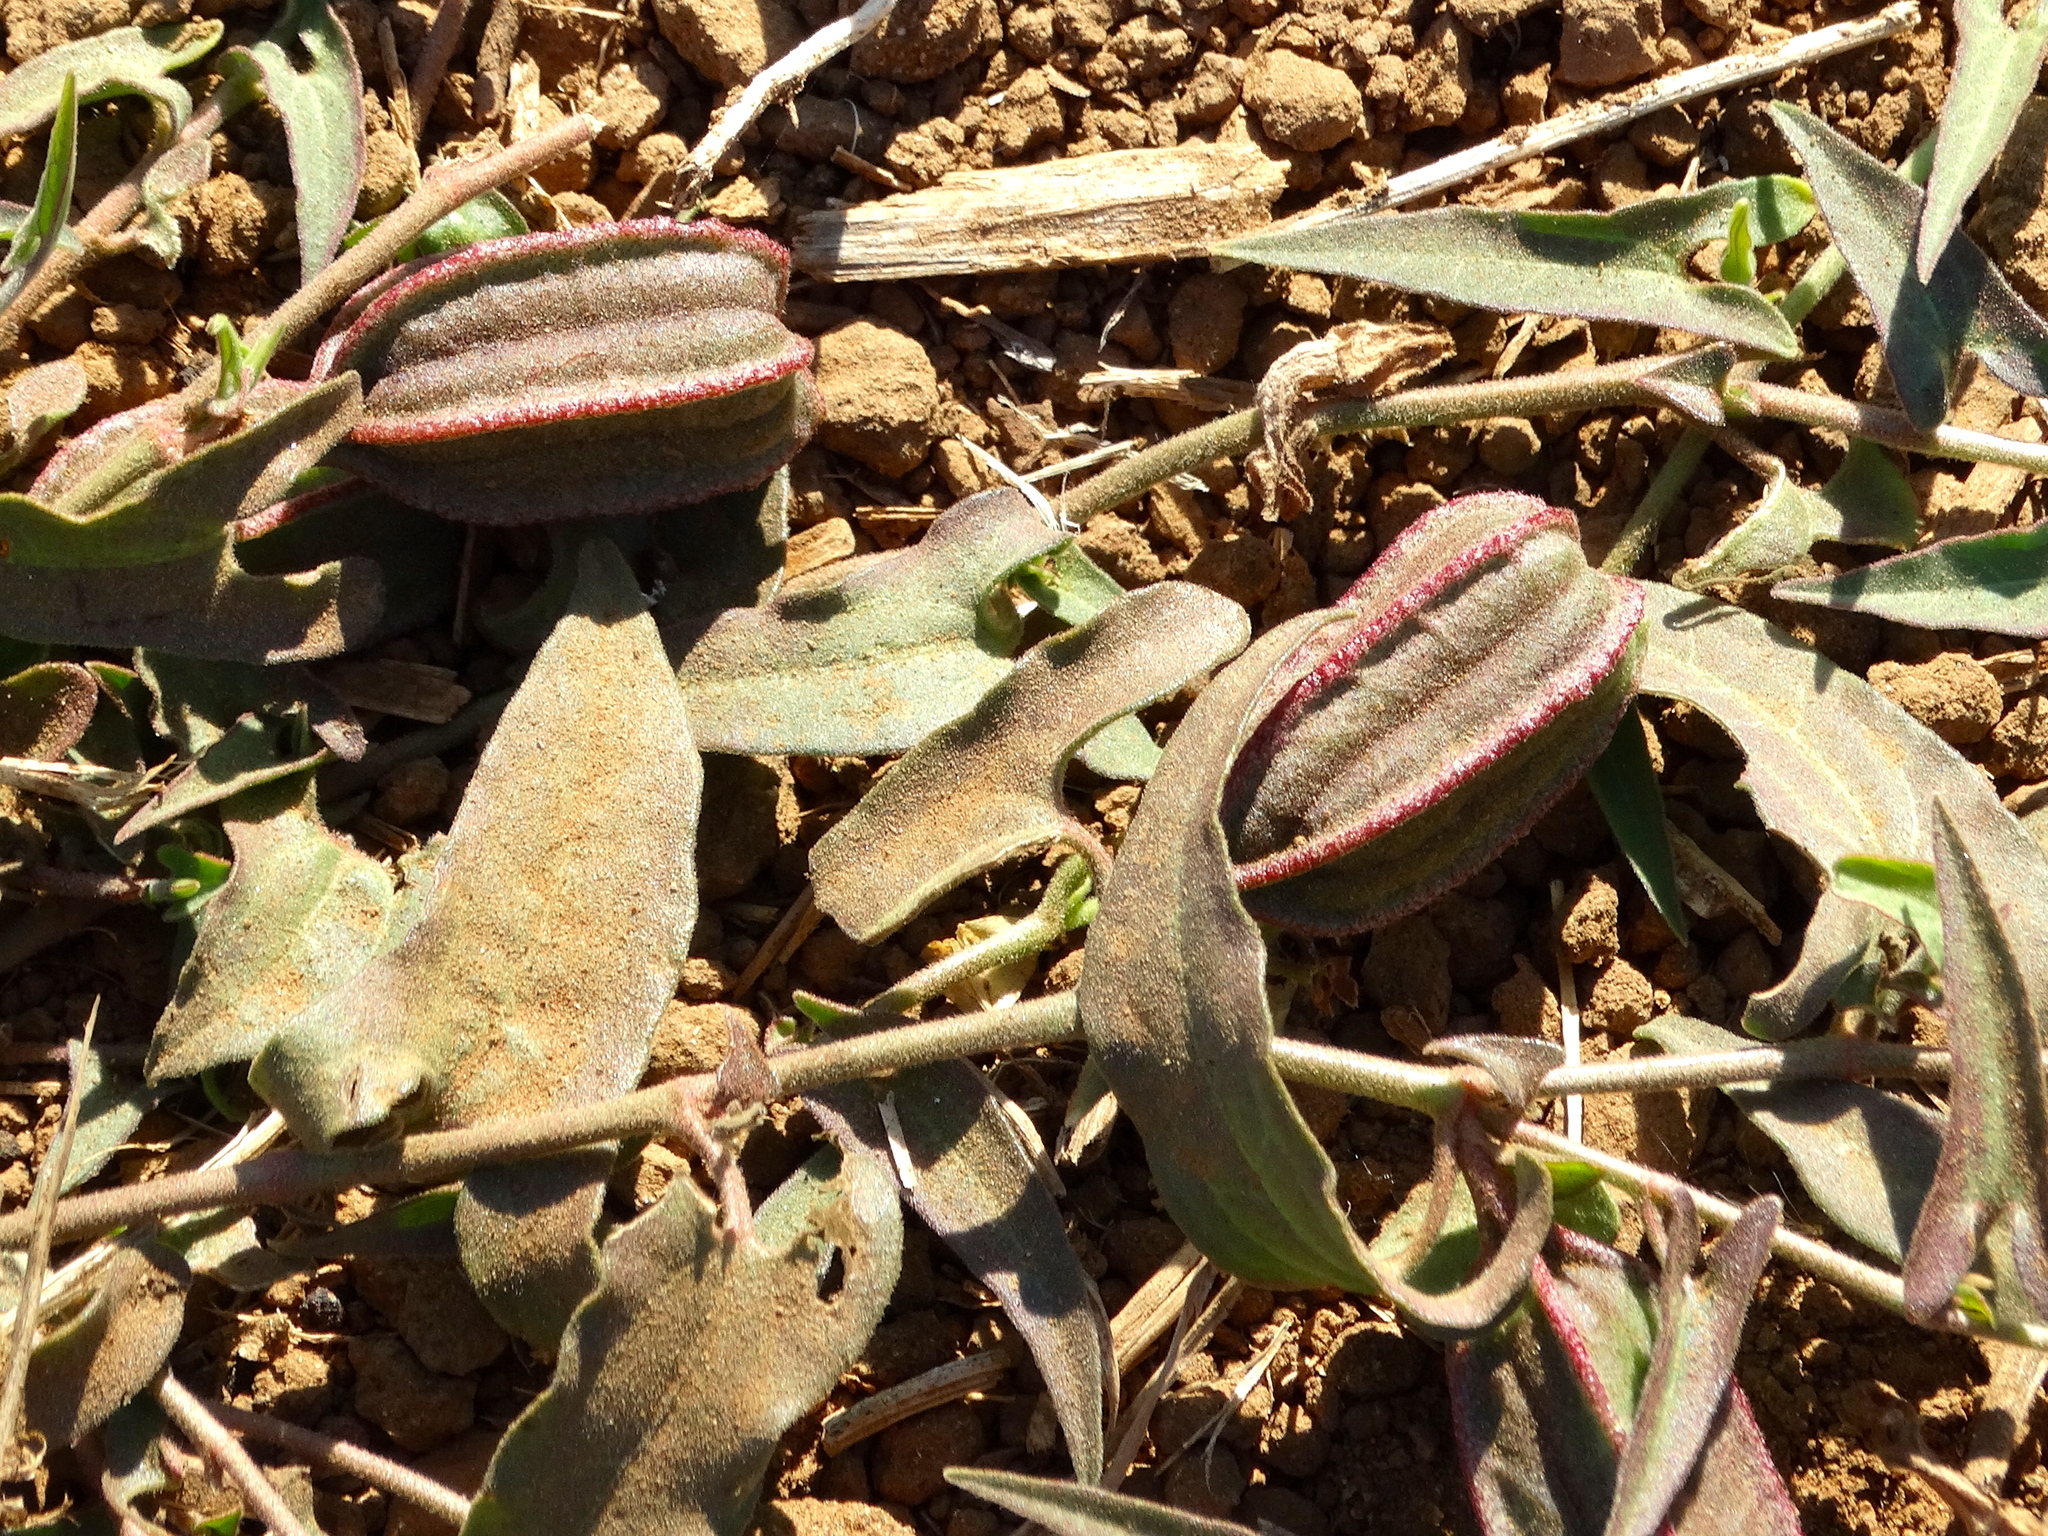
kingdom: Plantae
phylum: Tracheophyta
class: Magnoliopsida
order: Piperales
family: Aristolochiaceae
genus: Aristolochia
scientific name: Aristolochia watsonii
